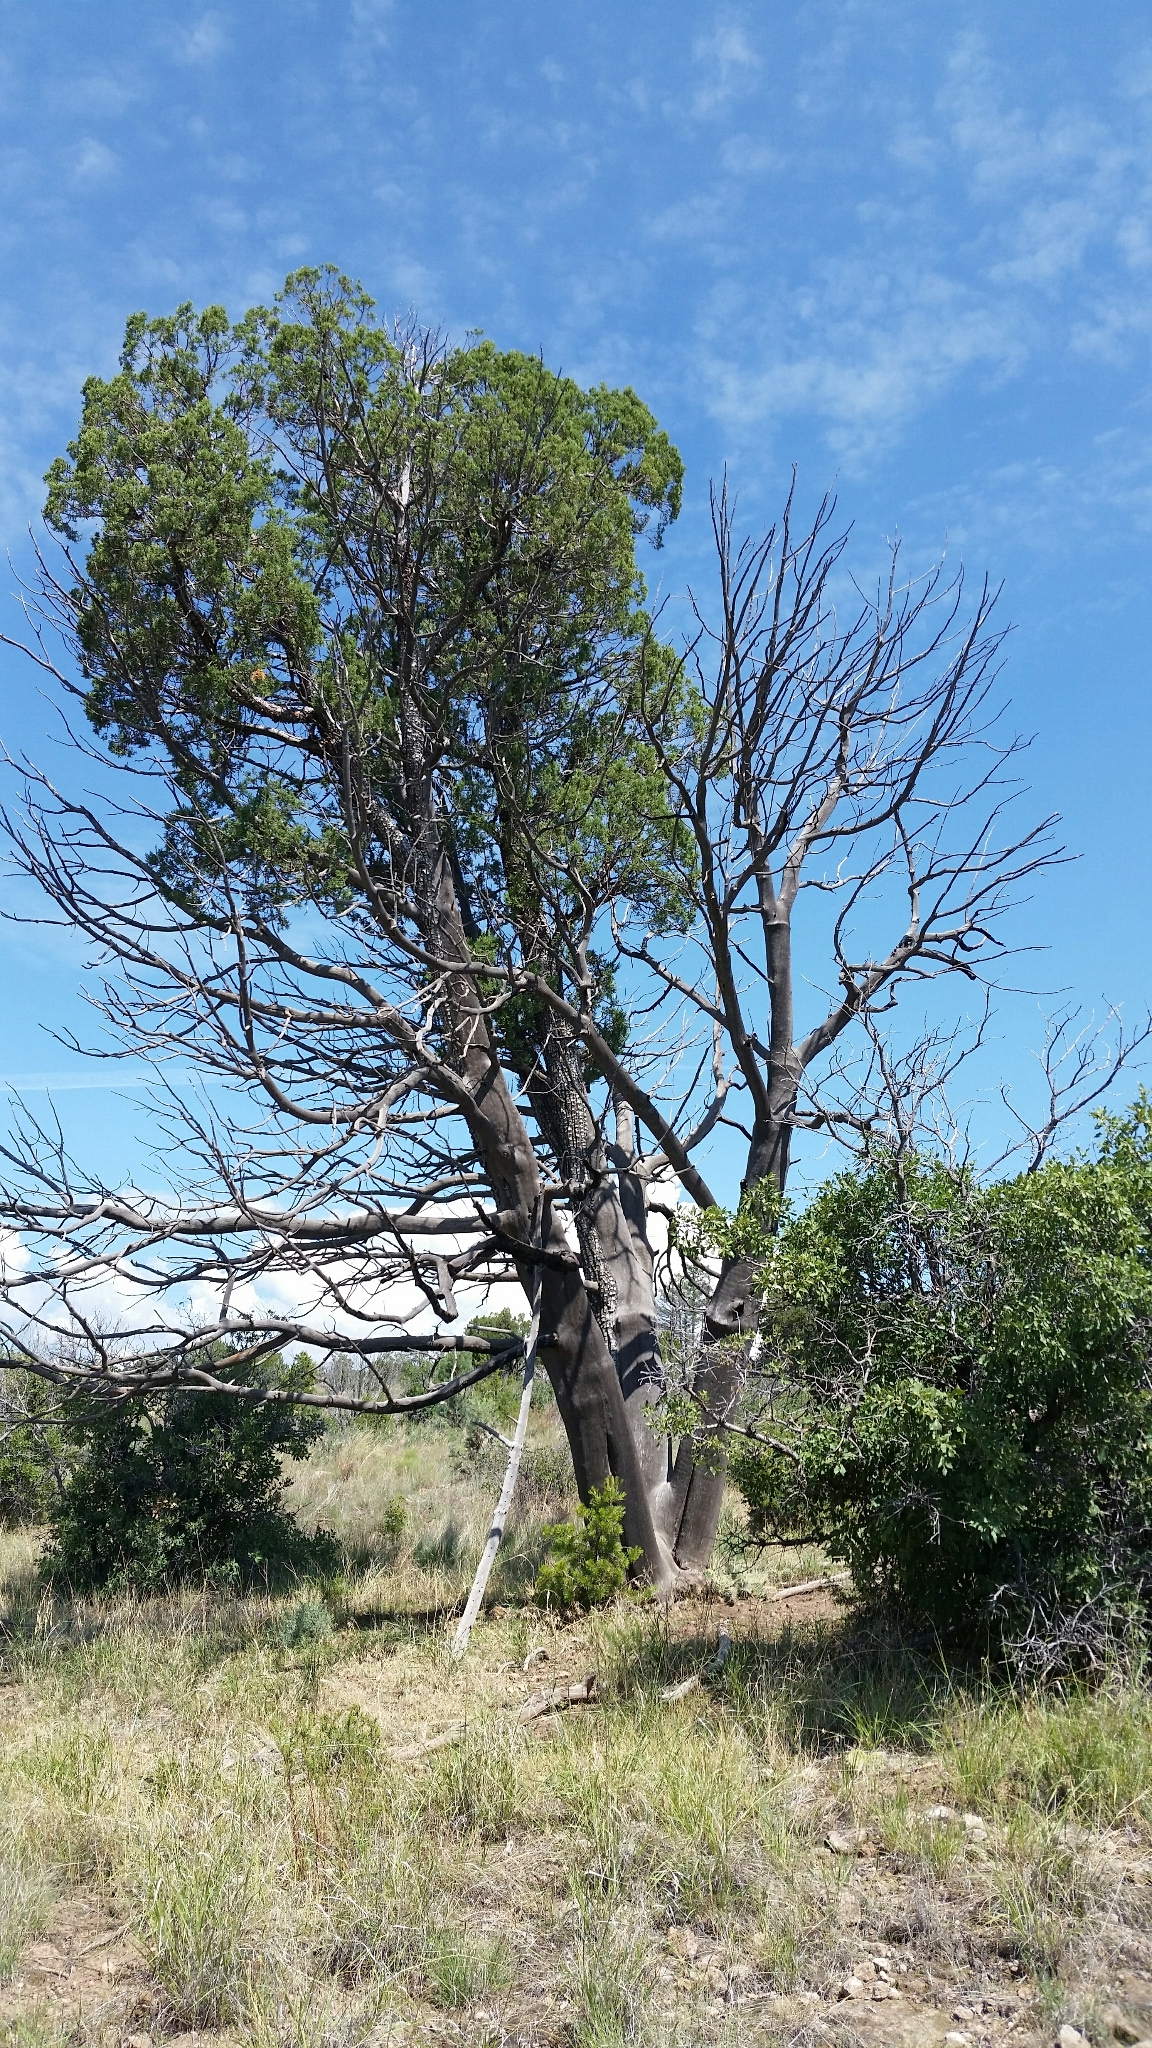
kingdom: Plantae
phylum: Tracheophyta
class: Pinopsida
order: Pinales
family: Cupressaceae
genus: Juniperus
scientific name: Juniperus deppeana
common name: Alligator juniper
